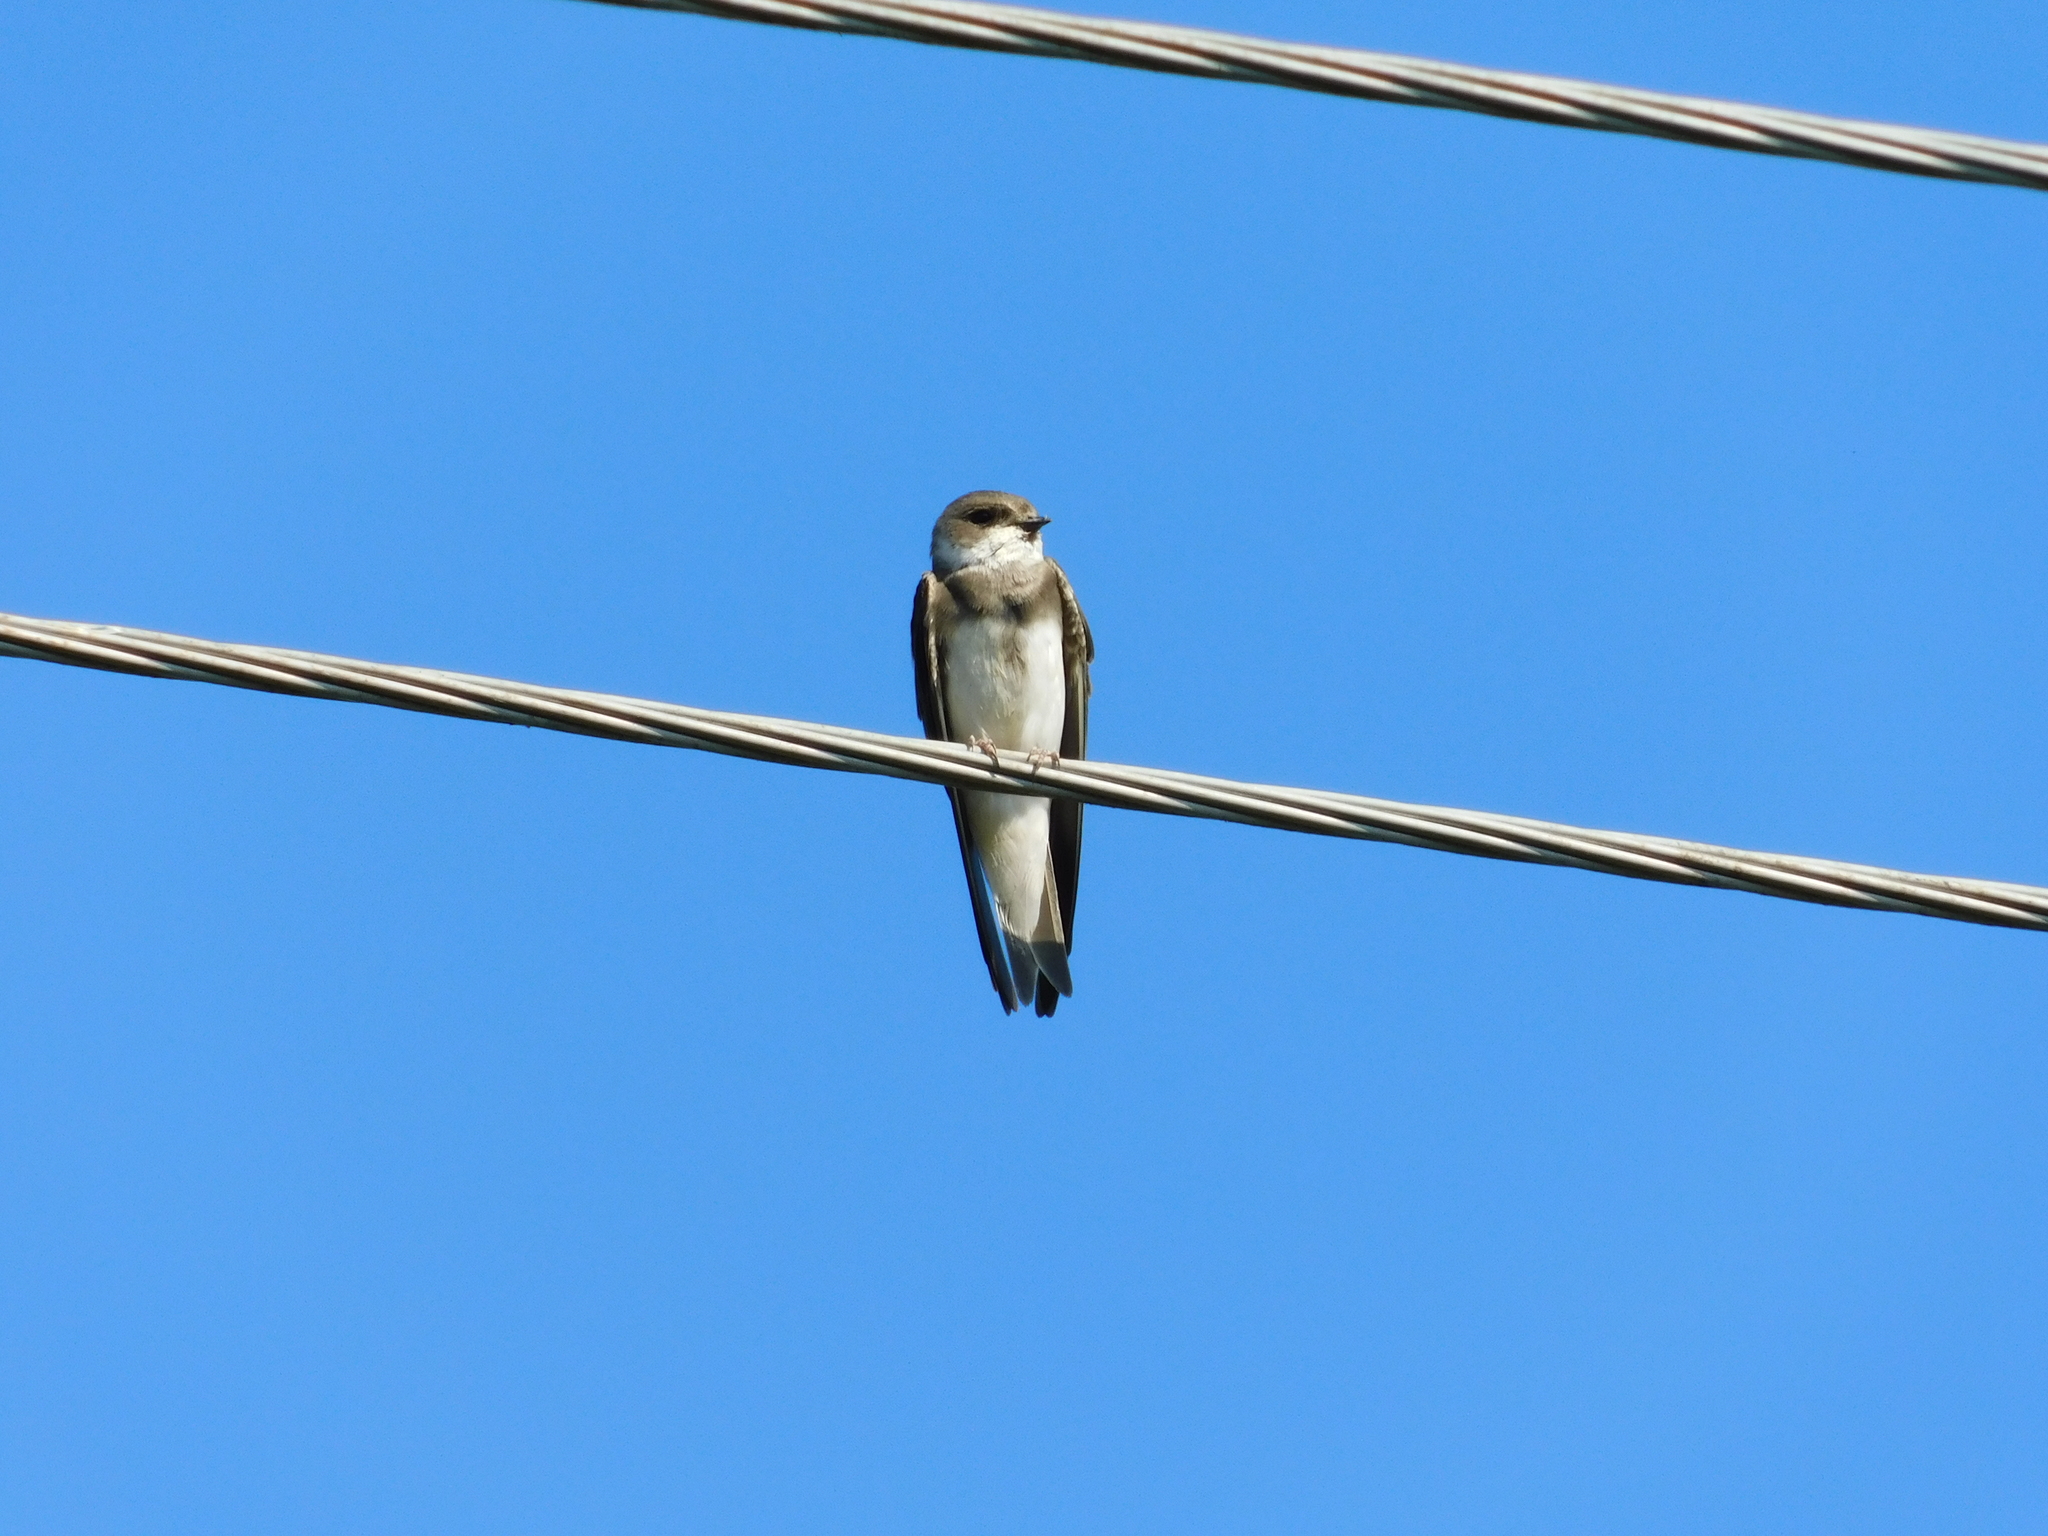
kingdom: Animalia
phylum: Chordata
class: Aves
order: Passeriformes
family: Hirundinidae
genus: Riparia
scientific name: Riparia riparia
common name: Sand martin
